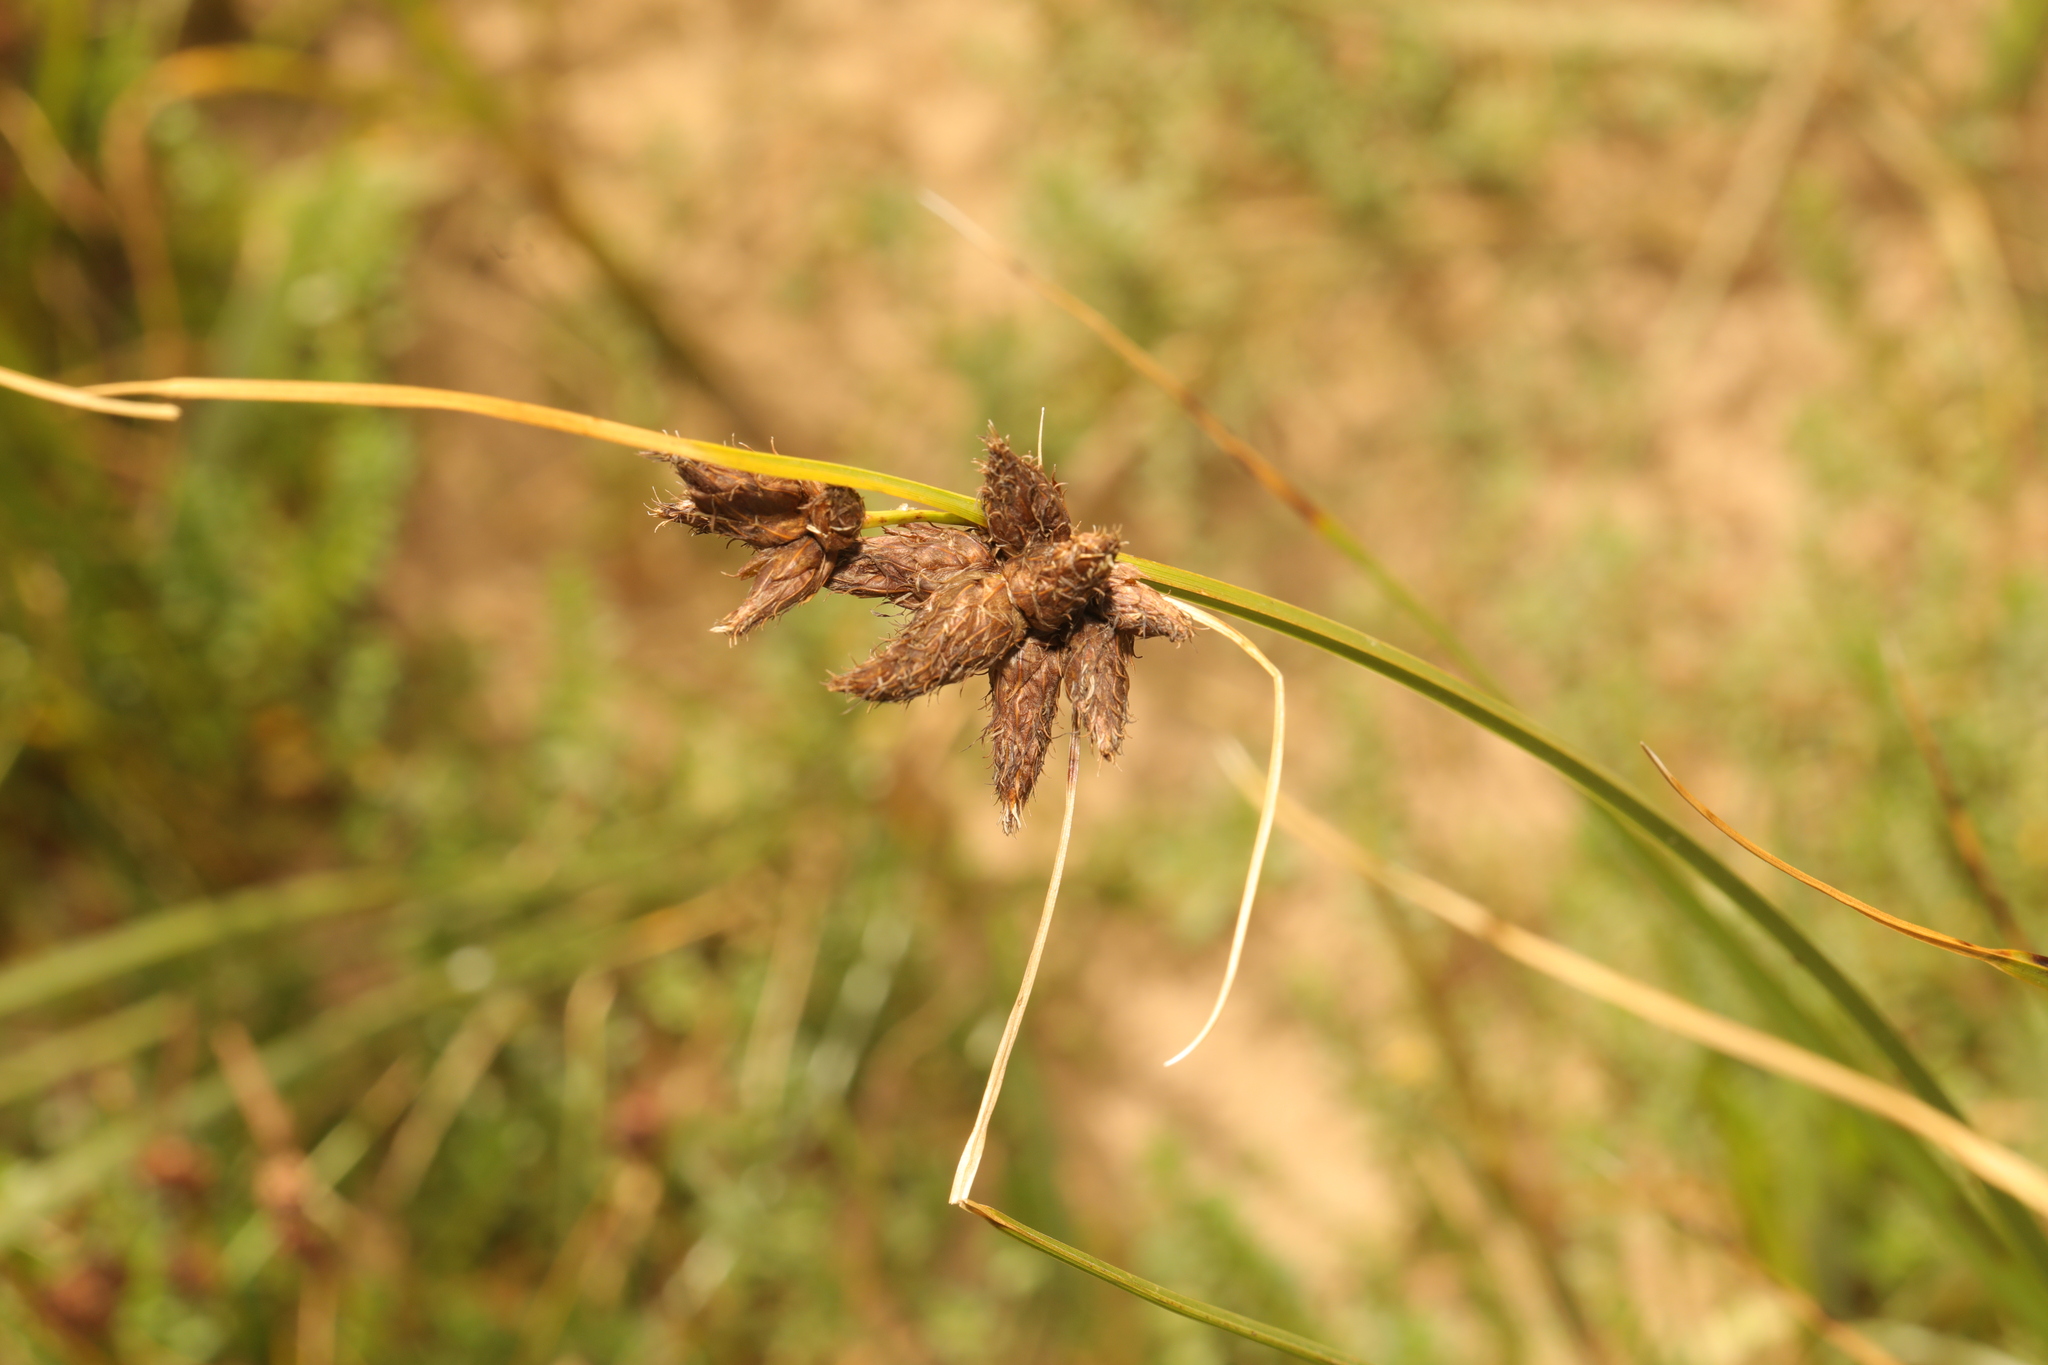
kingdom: Plantae
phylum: Tracheophyta
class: Liliopsida
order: Poales
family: Cyperaceae
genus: Bolboschoenus
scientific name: Bolboschoenus maritimus
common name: Sea club-rush
